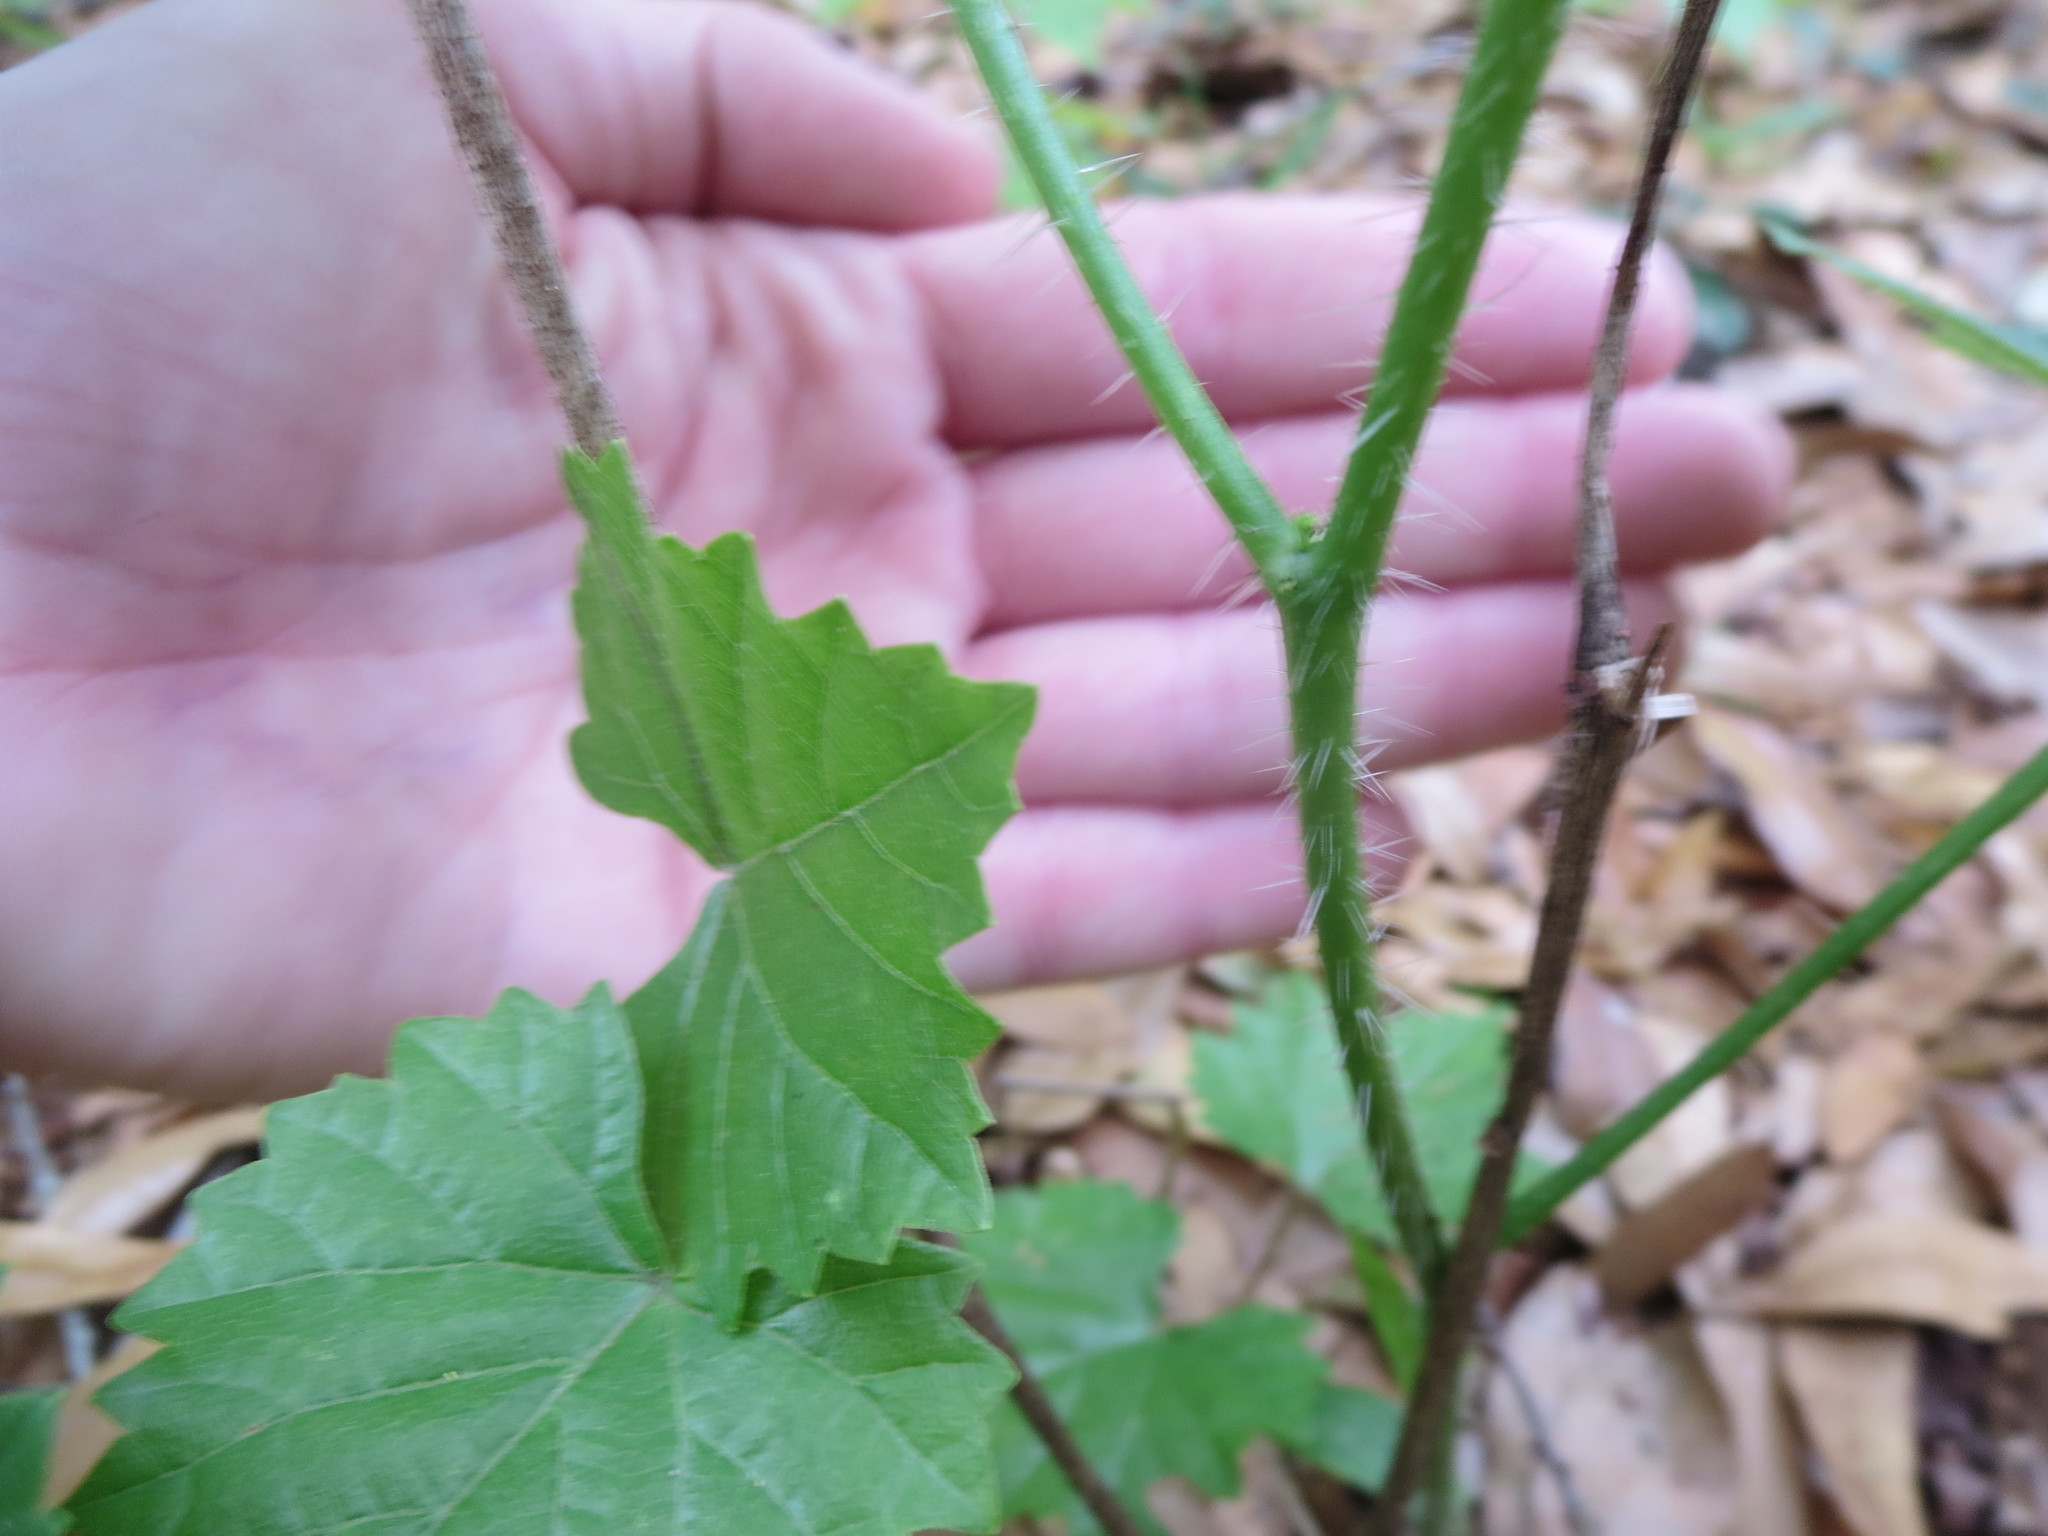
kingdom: Plantae
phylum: Tracheophyta
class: Magnoliopsida
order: Malpighiales
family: Euphorbiaceae
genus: Cnidoscolus
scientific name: Cnidoscolus stimulosus
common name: Bull-nettle
